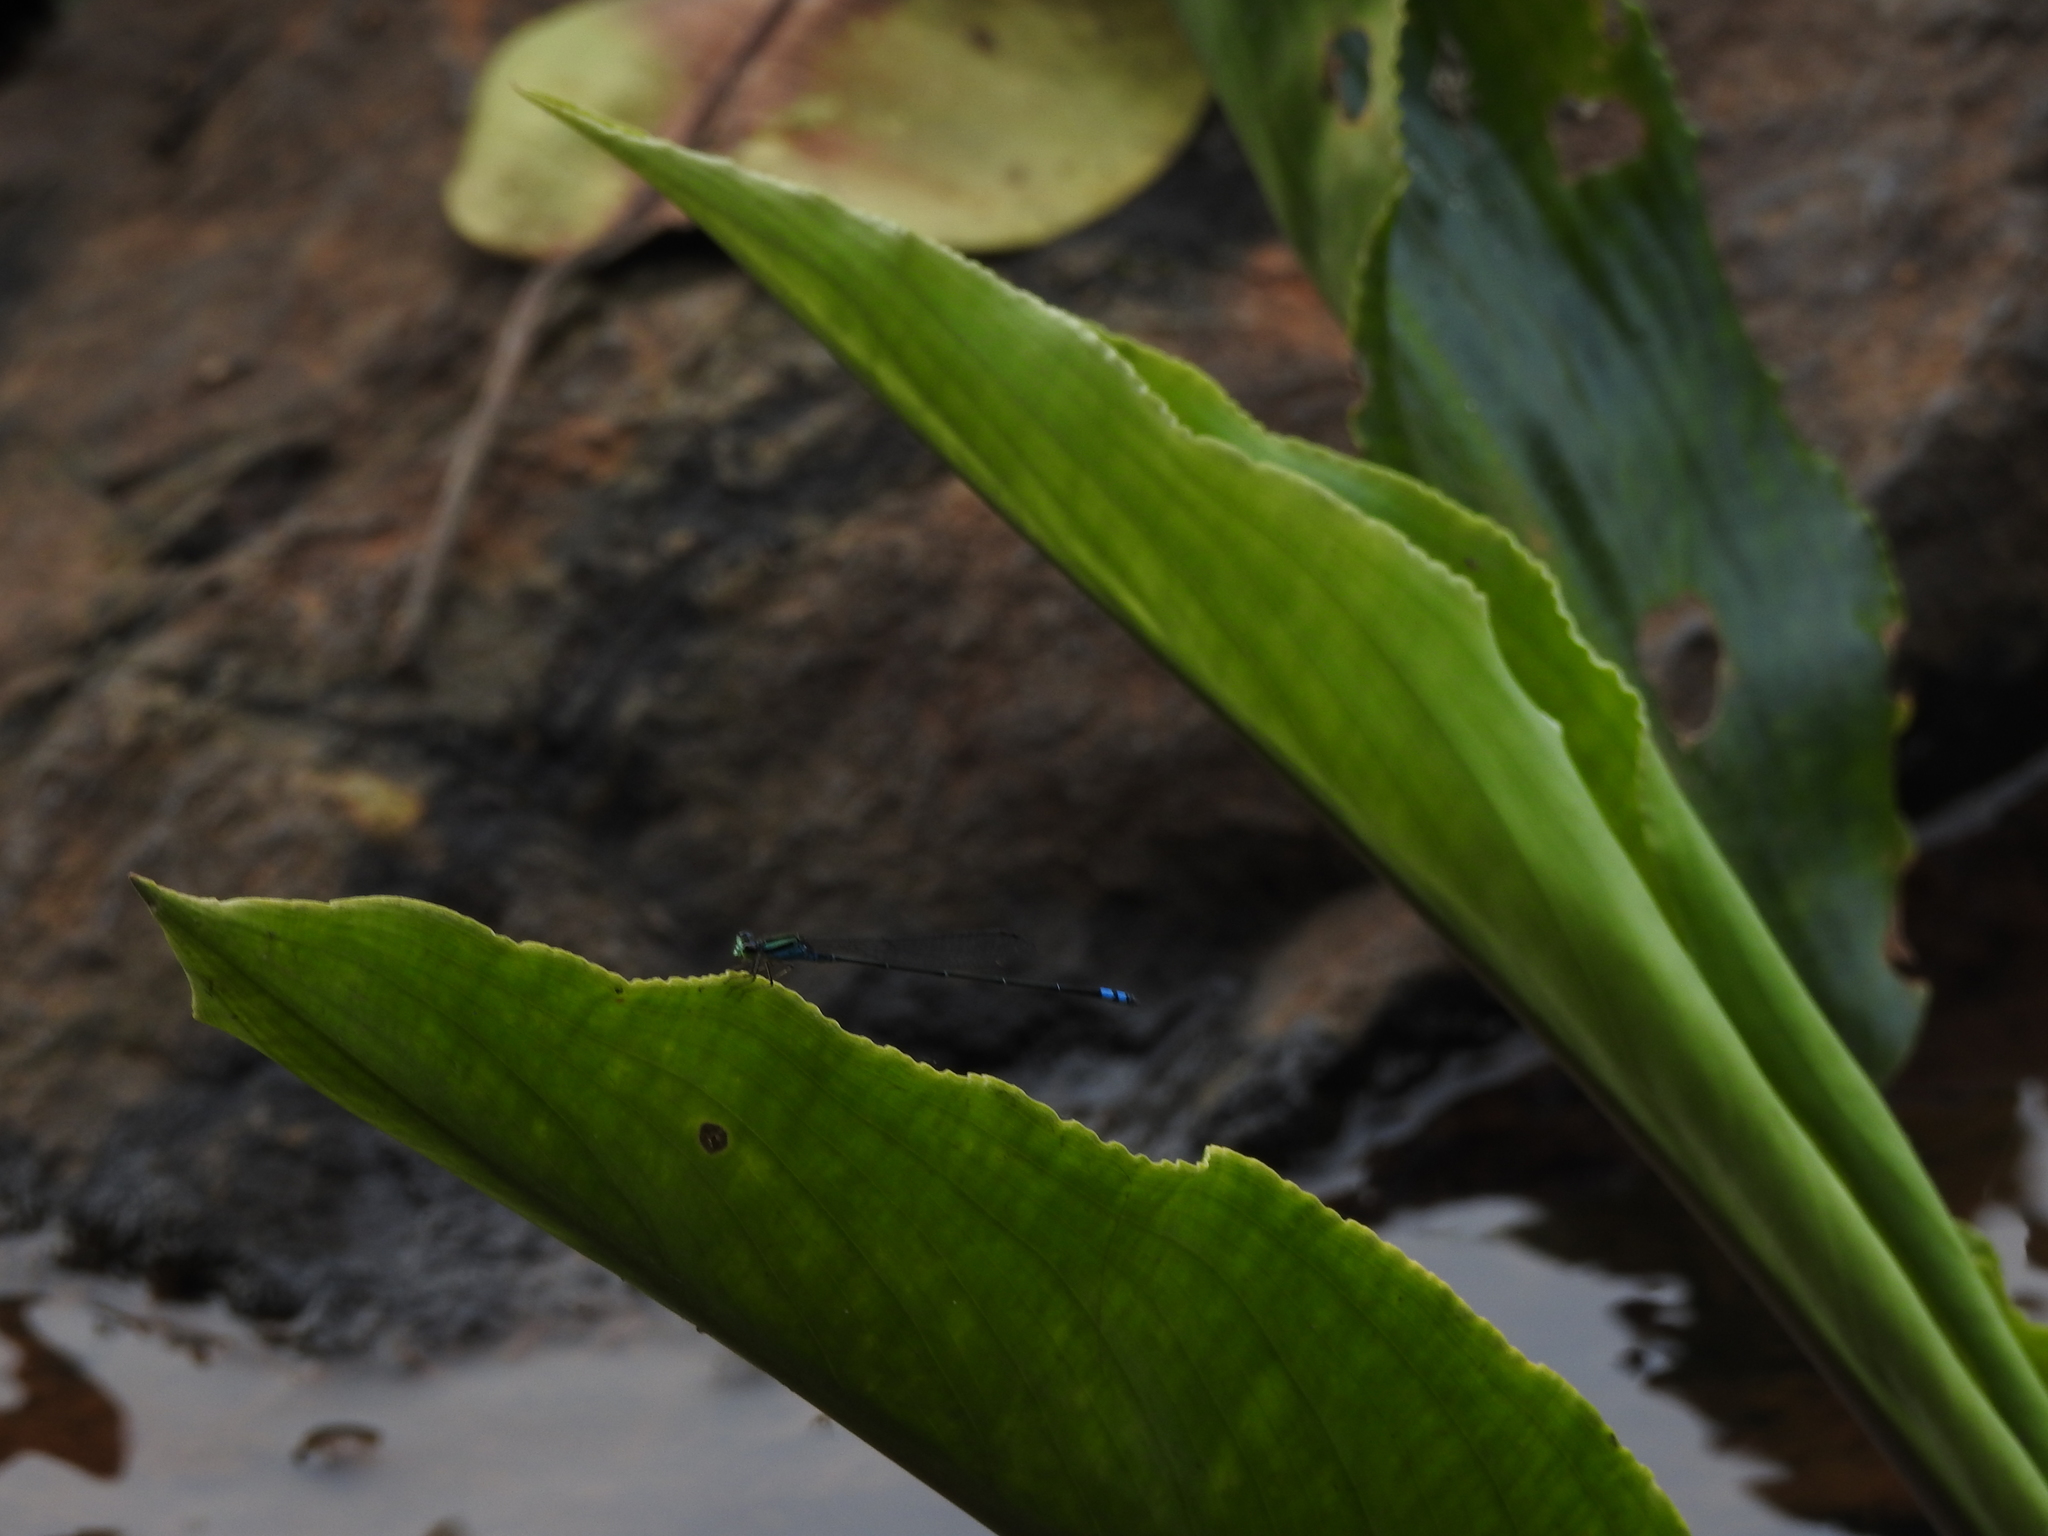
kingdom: Animalia
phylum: Arthropoda
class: Insecta
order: Odonata
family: Coenagrionidae
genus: Pseudagrion
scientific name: Pseudagrion indicum
